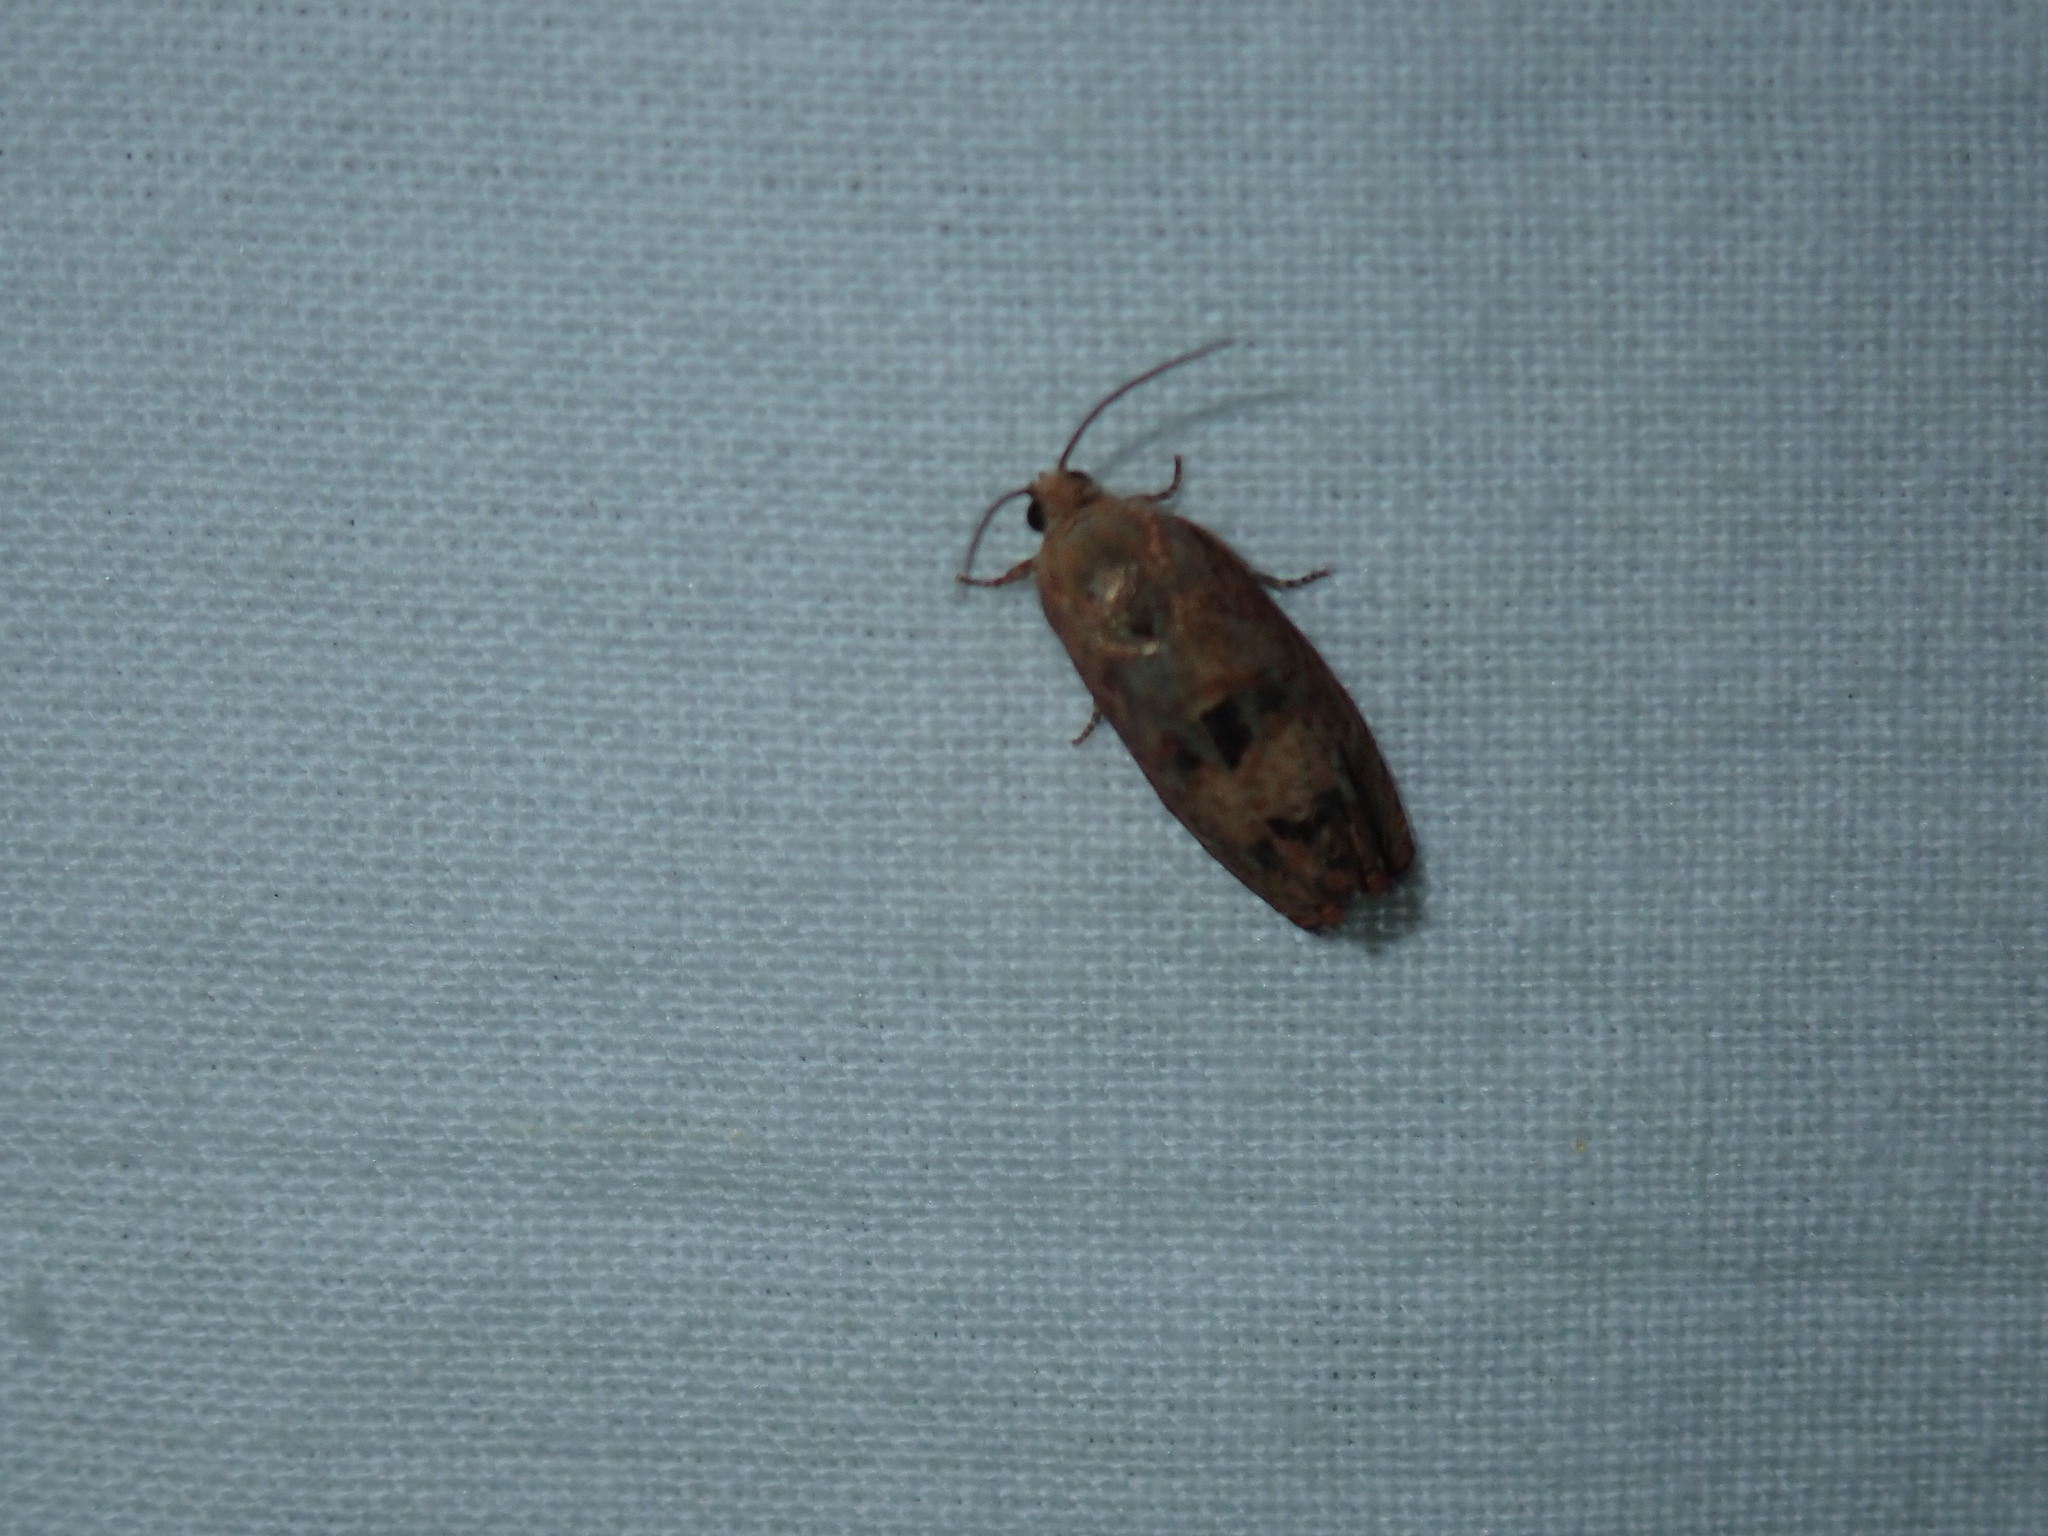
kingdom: Animalia
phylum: Arthropoda
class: Insecta
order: Lepidoptera
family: Tortricidae
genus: Cydia
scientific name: Cydia latiferreana
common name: Filbertworm moth
